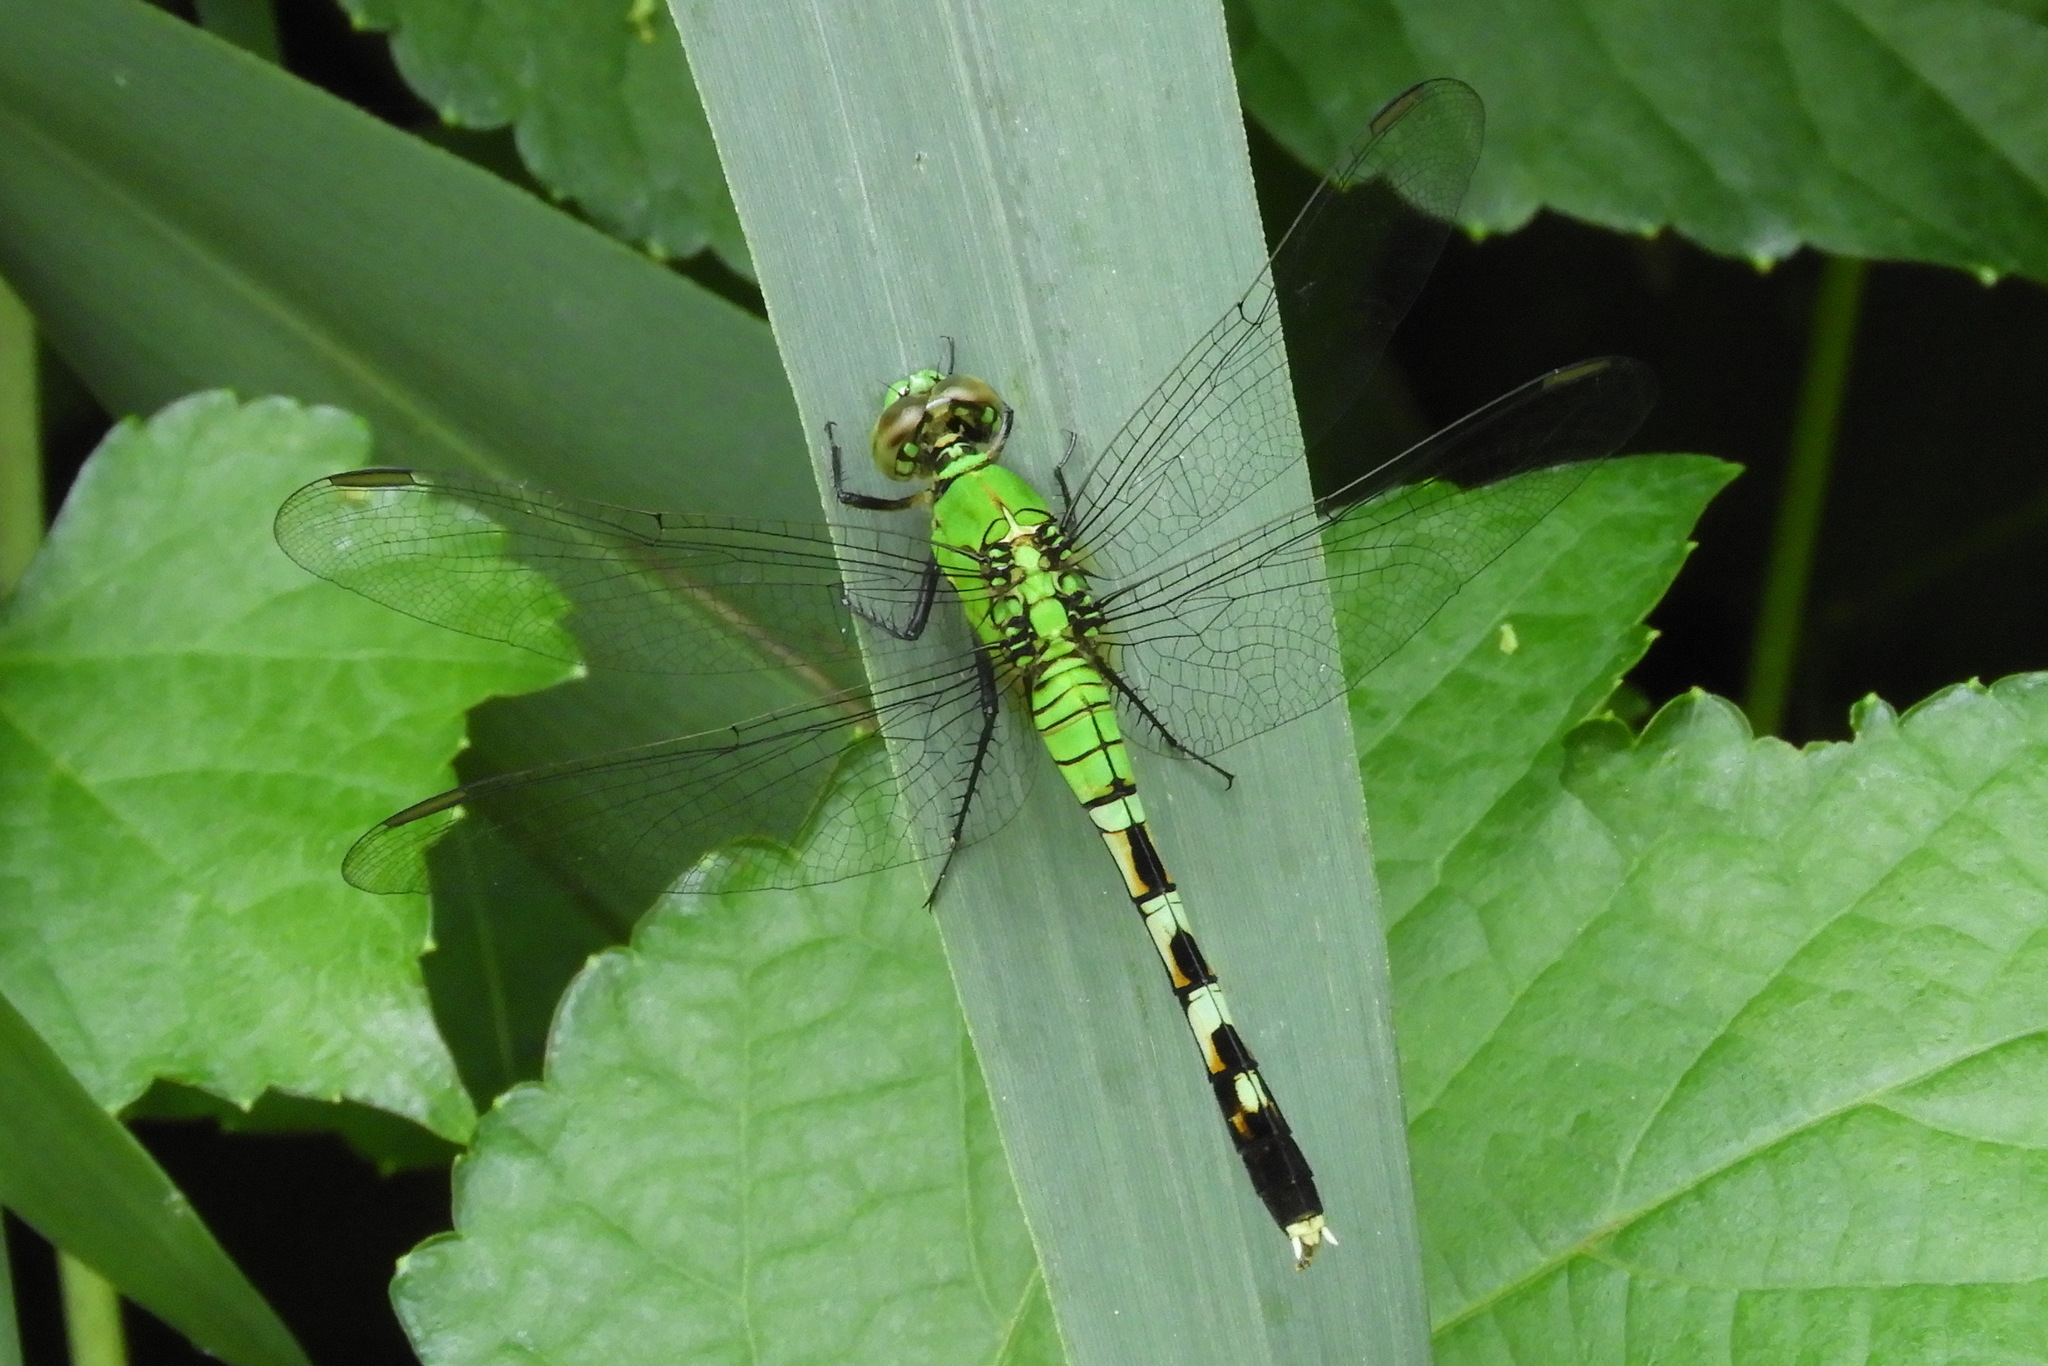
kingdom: Animalia
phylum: Arthropoda
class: Insecta
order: Odonata
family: Libellulidae
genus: Erythemis
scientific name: Erythemis simplicicollis
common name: Eastern pondhawk
